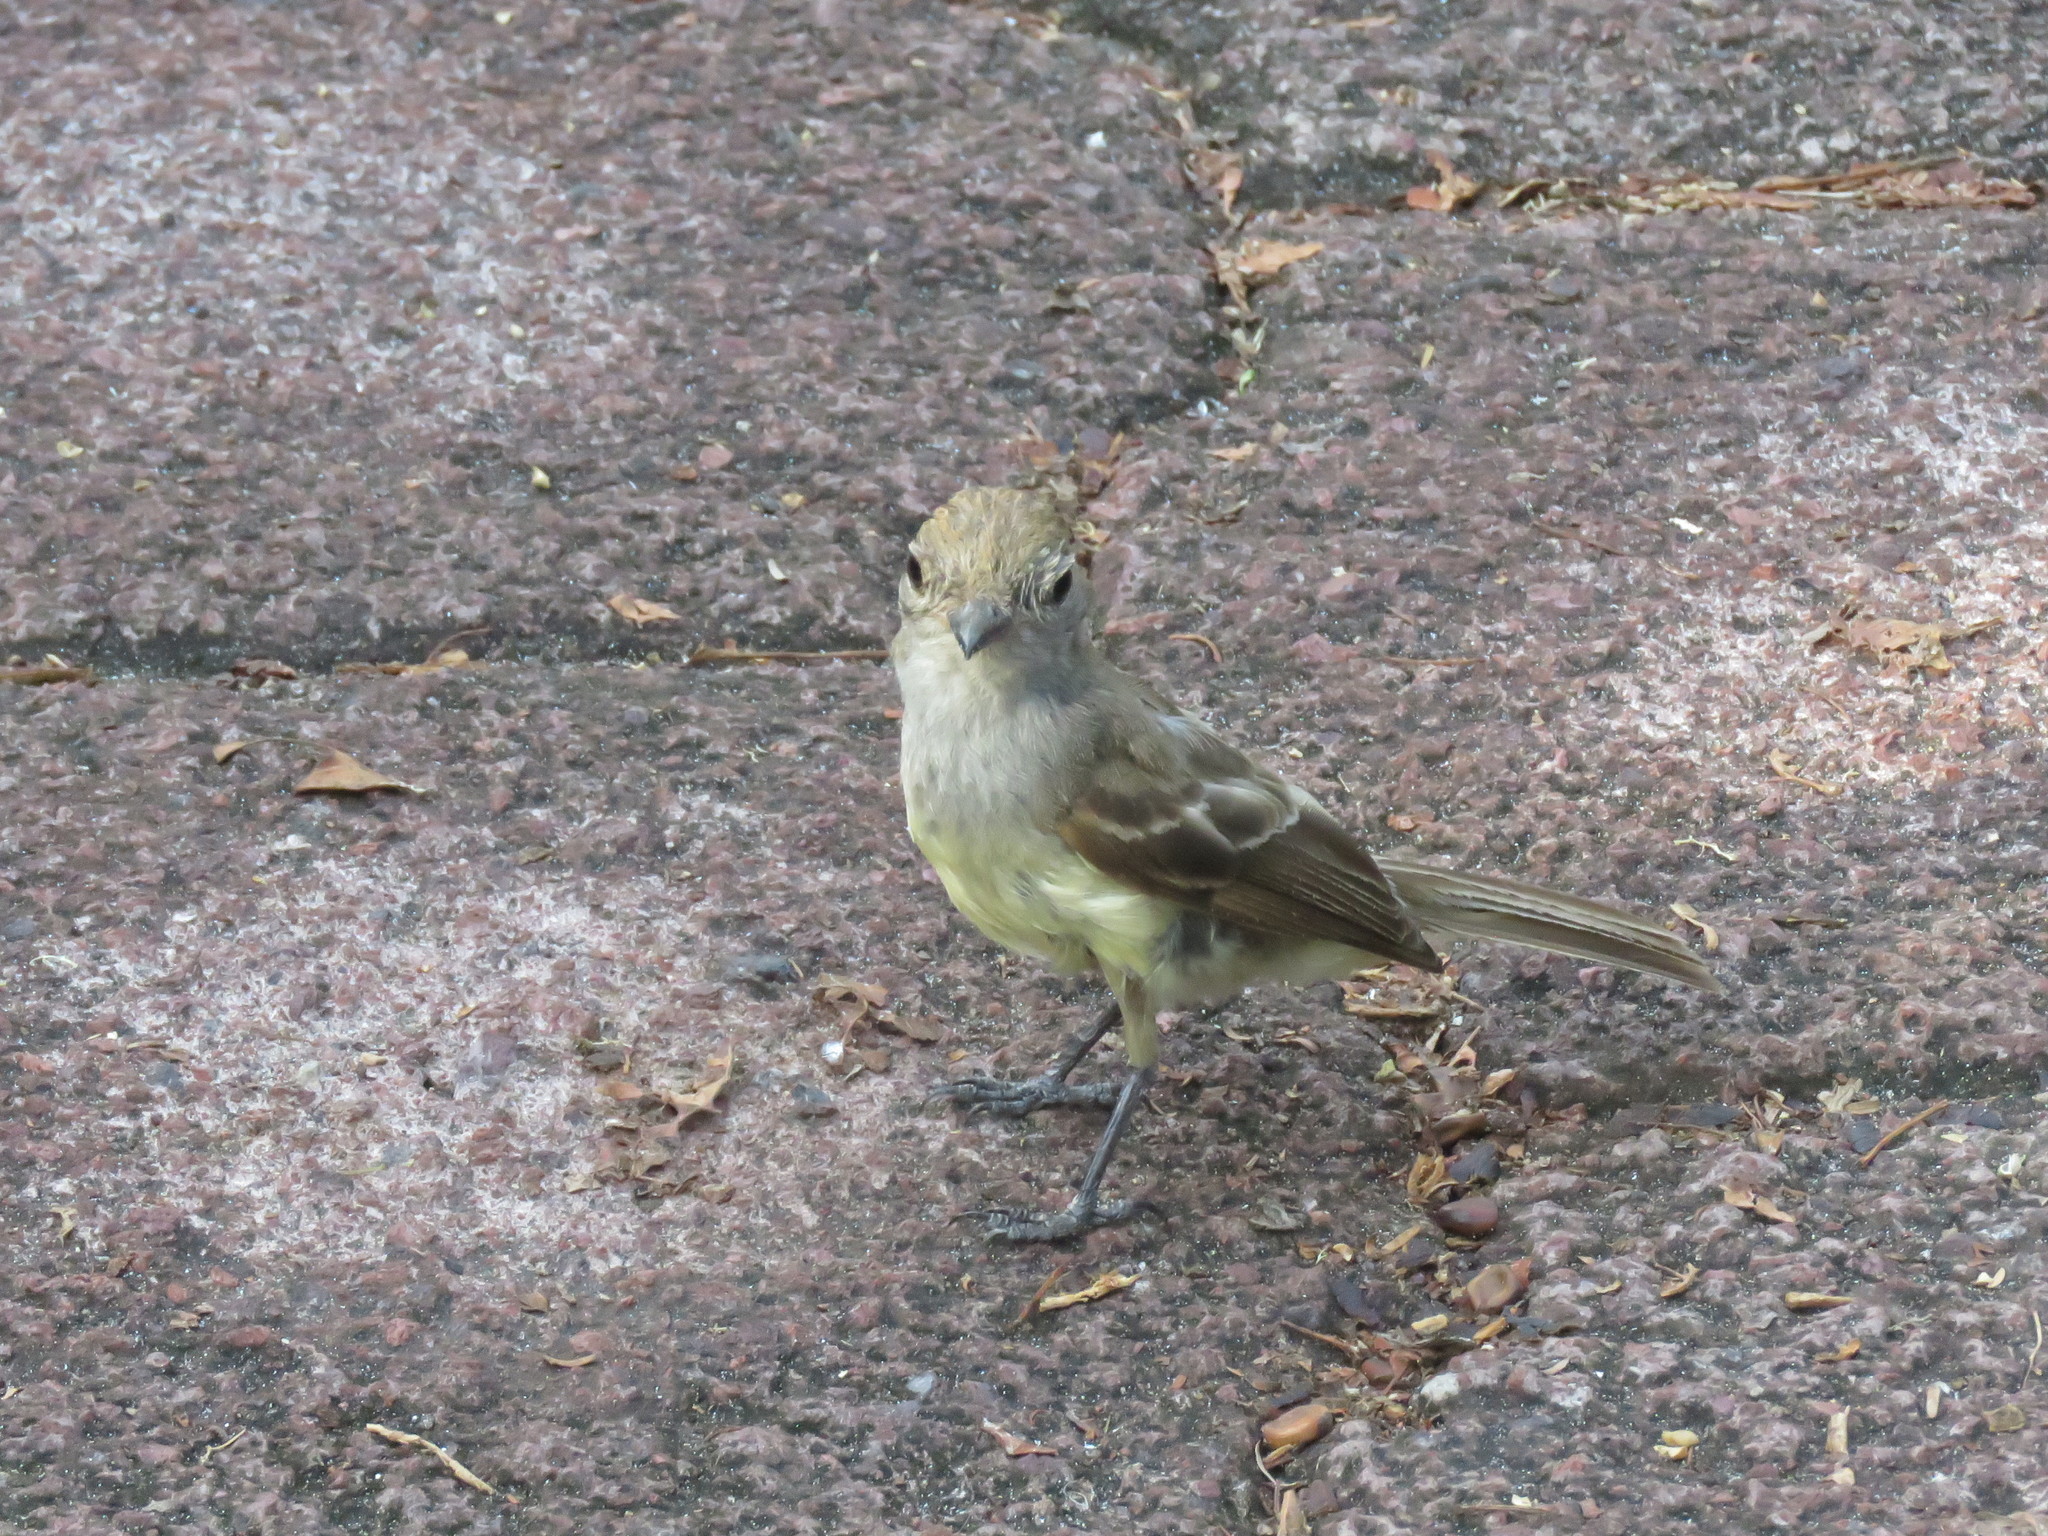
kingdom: Animalia
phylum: Chordata
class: Aves
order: Passeriformes
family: Tyrannidae
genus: Myiarchus
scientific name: Myiarchus magnirostris
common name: Galapagos flycatcher
